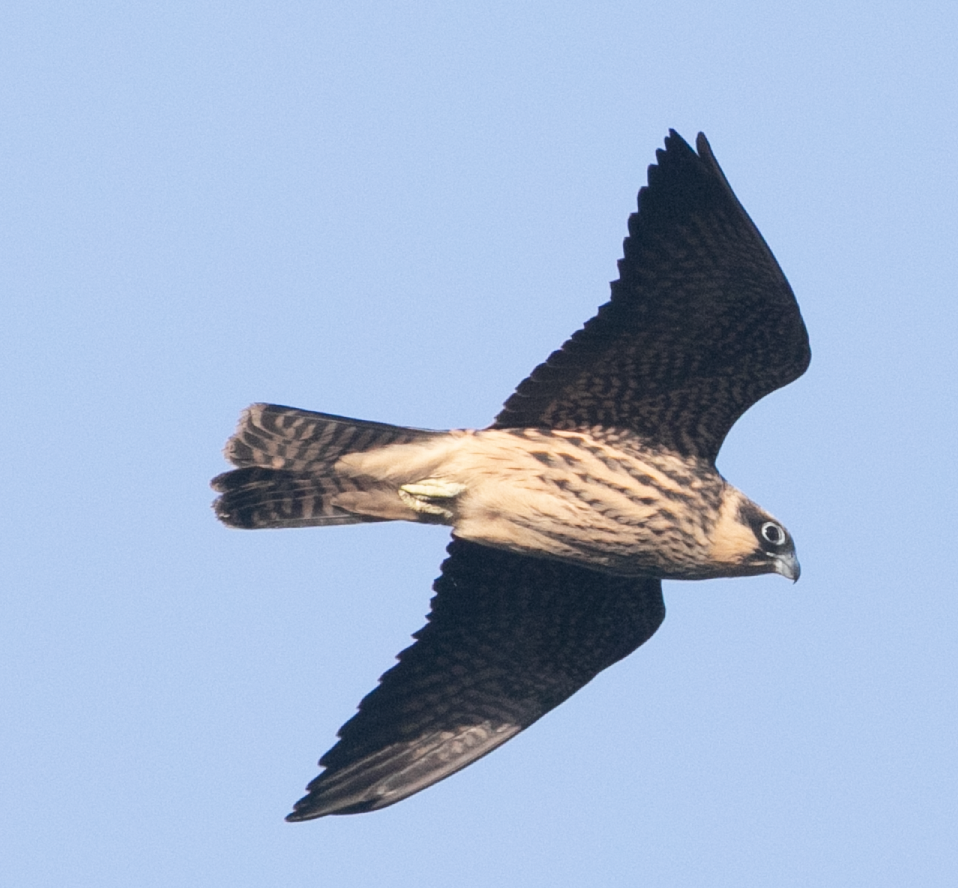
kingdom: Animalia
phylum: Chordata
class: Aves
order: Falconiformes
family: Falconidae
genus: Falco
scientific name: Falco eleonorae
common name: Eleonora's falcon
